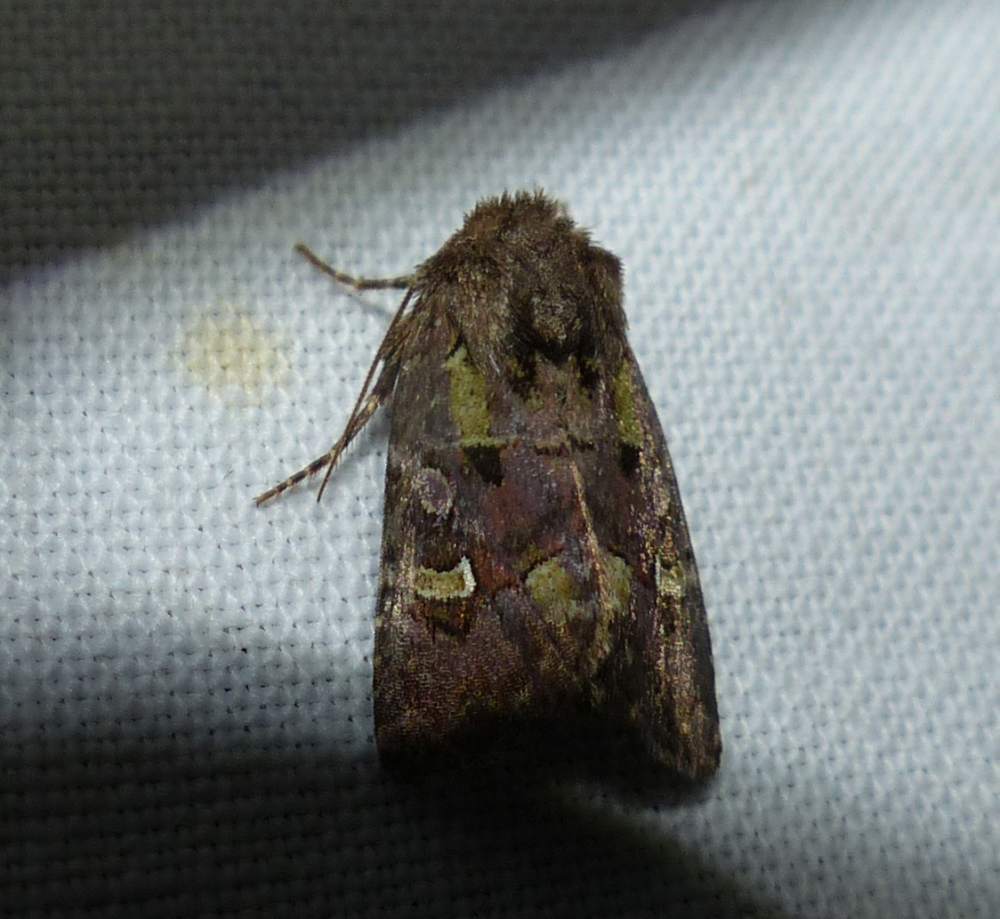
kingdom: Animalia
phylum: Arthropoda
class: Insecta
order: Lepidoptera
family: Noctuidae
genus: Lacinipolia
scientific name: Lacinipolia renigera
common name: Kidney-spotted minor
